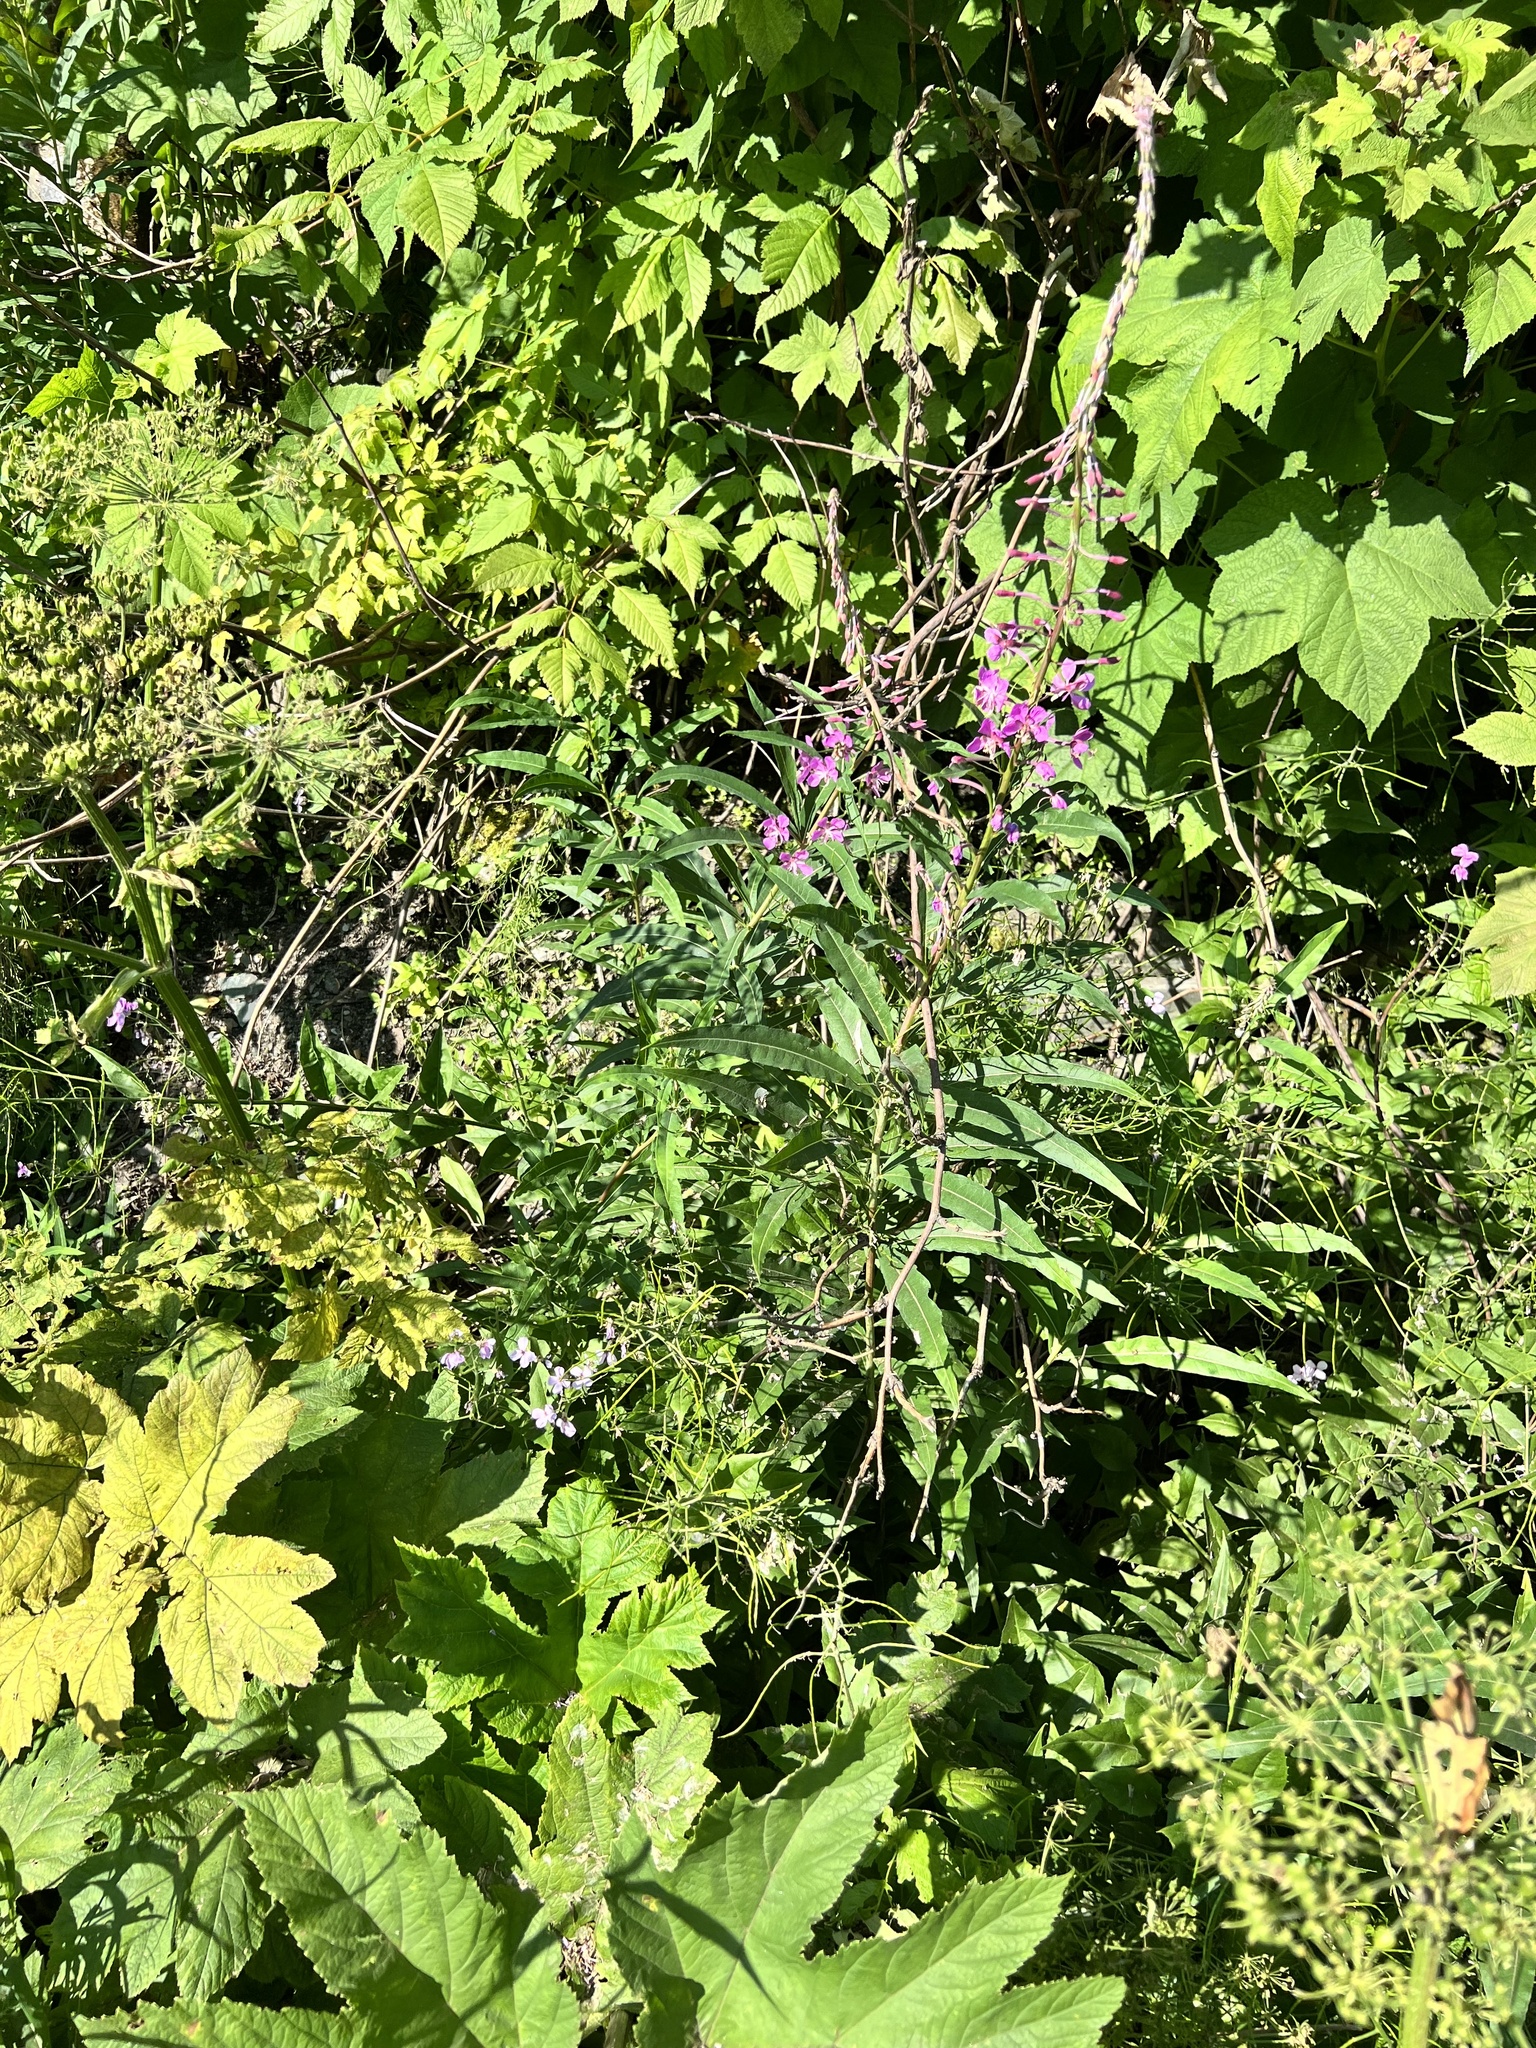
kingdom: Plantae
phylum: Tracheophyta
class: Magnoliopsida
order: Brassicales
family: Brassicaceae
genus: Hesperis
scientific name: Hesperis matronalis
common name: Dame's-violet
